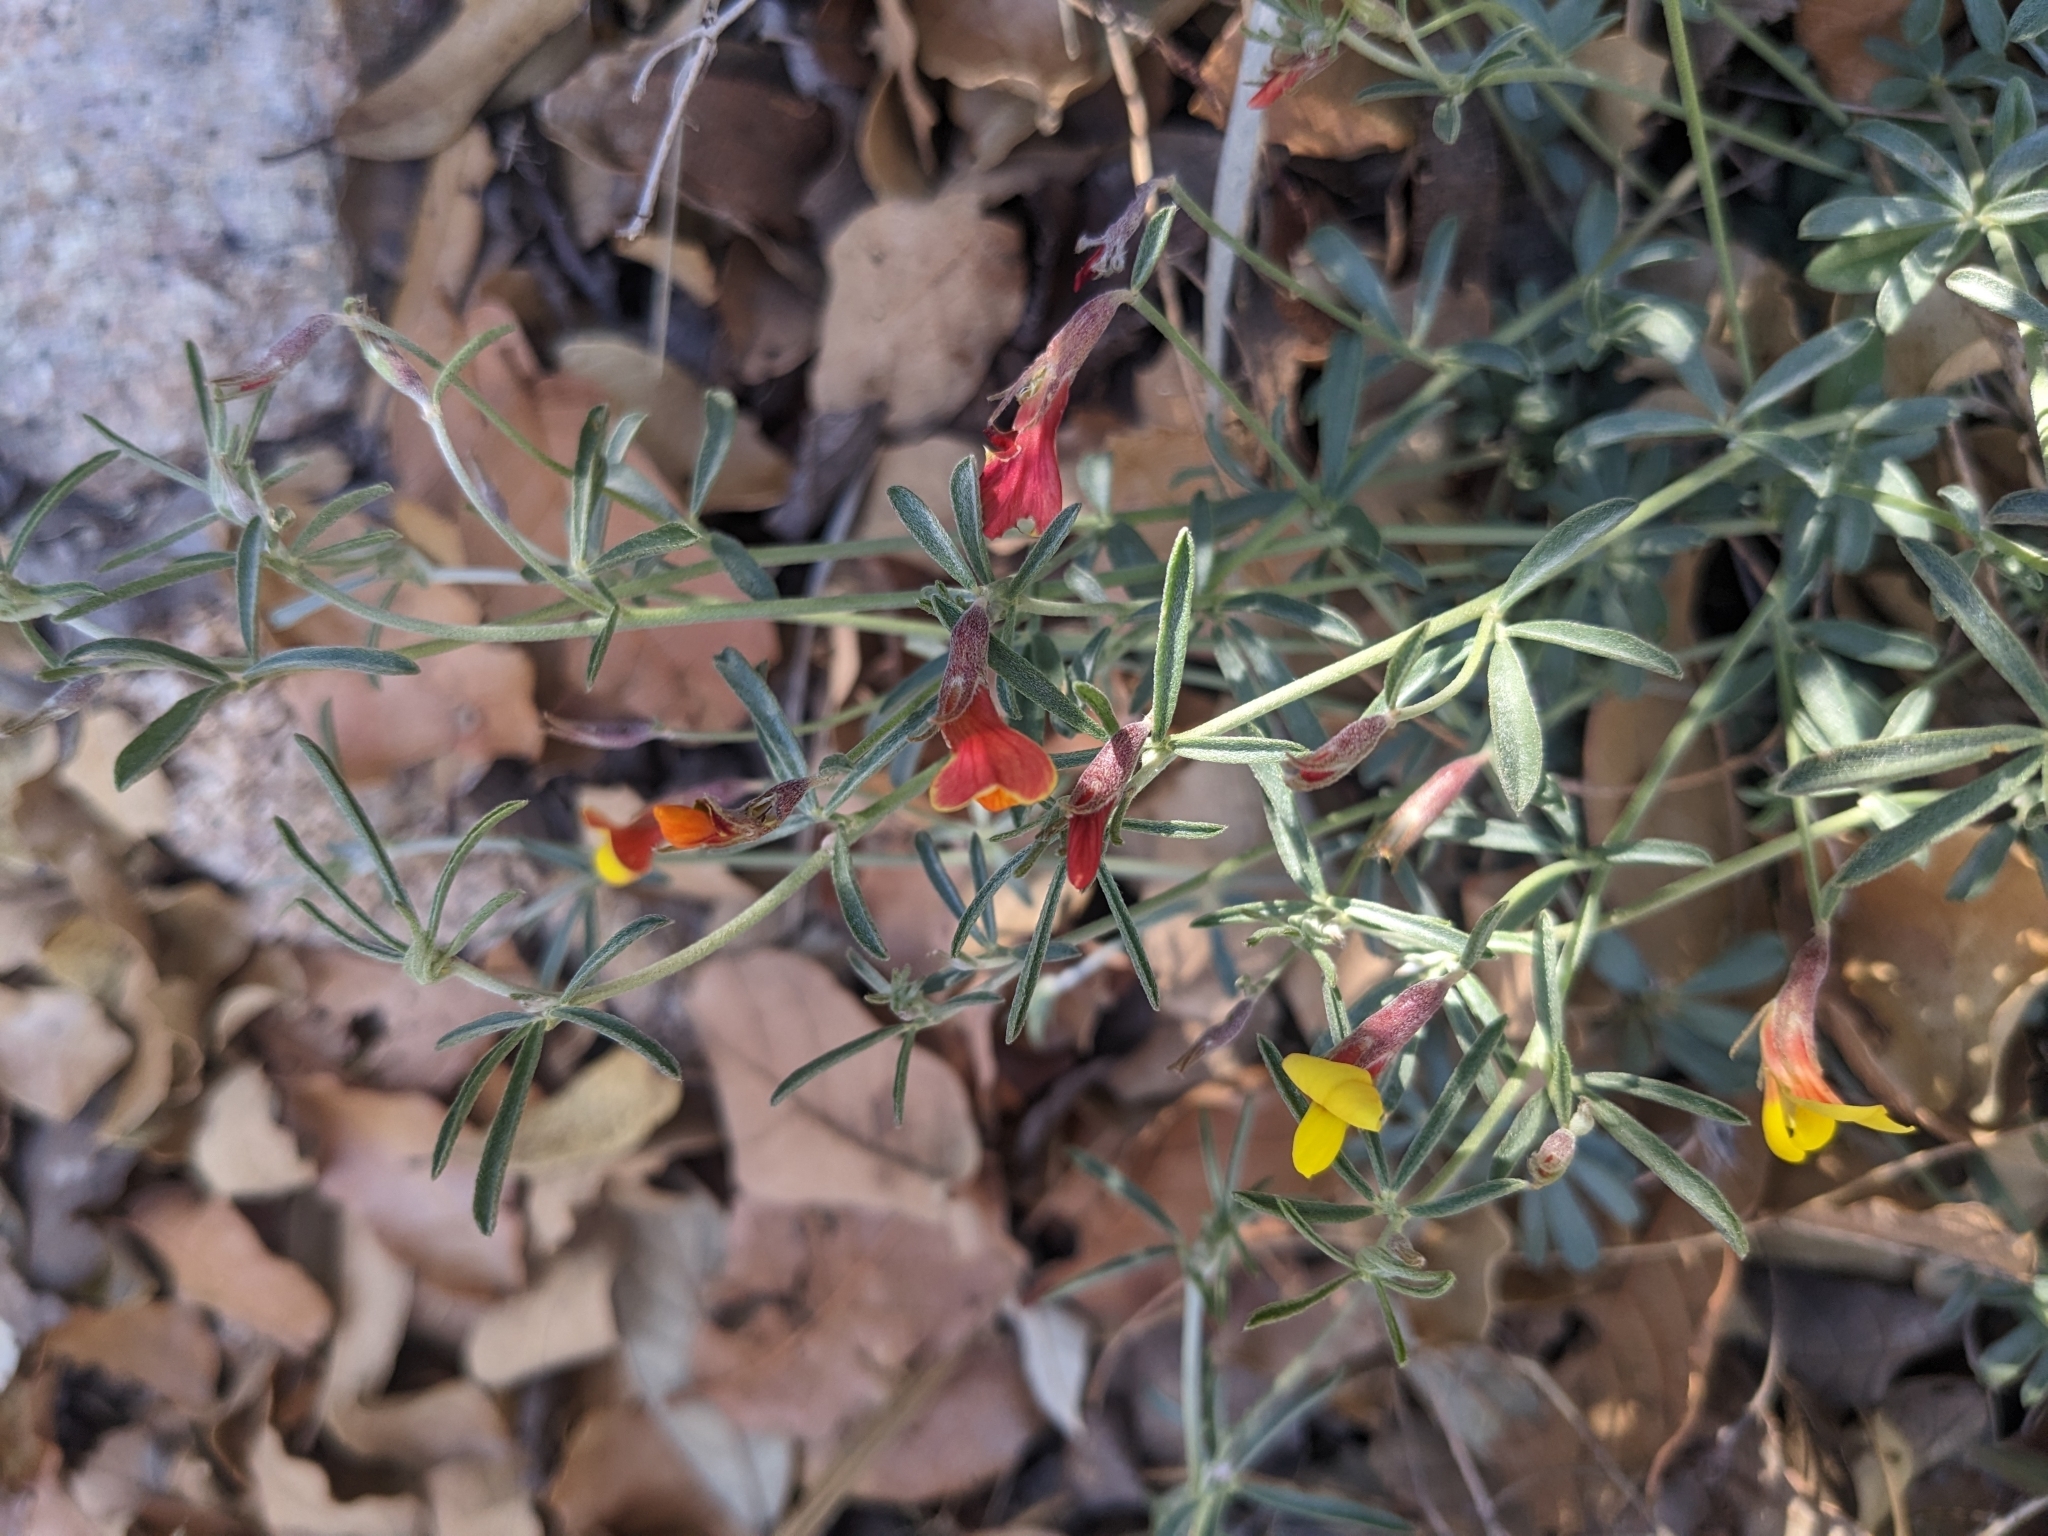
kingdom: Plantae
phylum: Tracheophyta
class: Magnoliopsida
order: Fabales
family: Fabaceae
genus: Acmispon
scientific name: Acmispon oroboides
